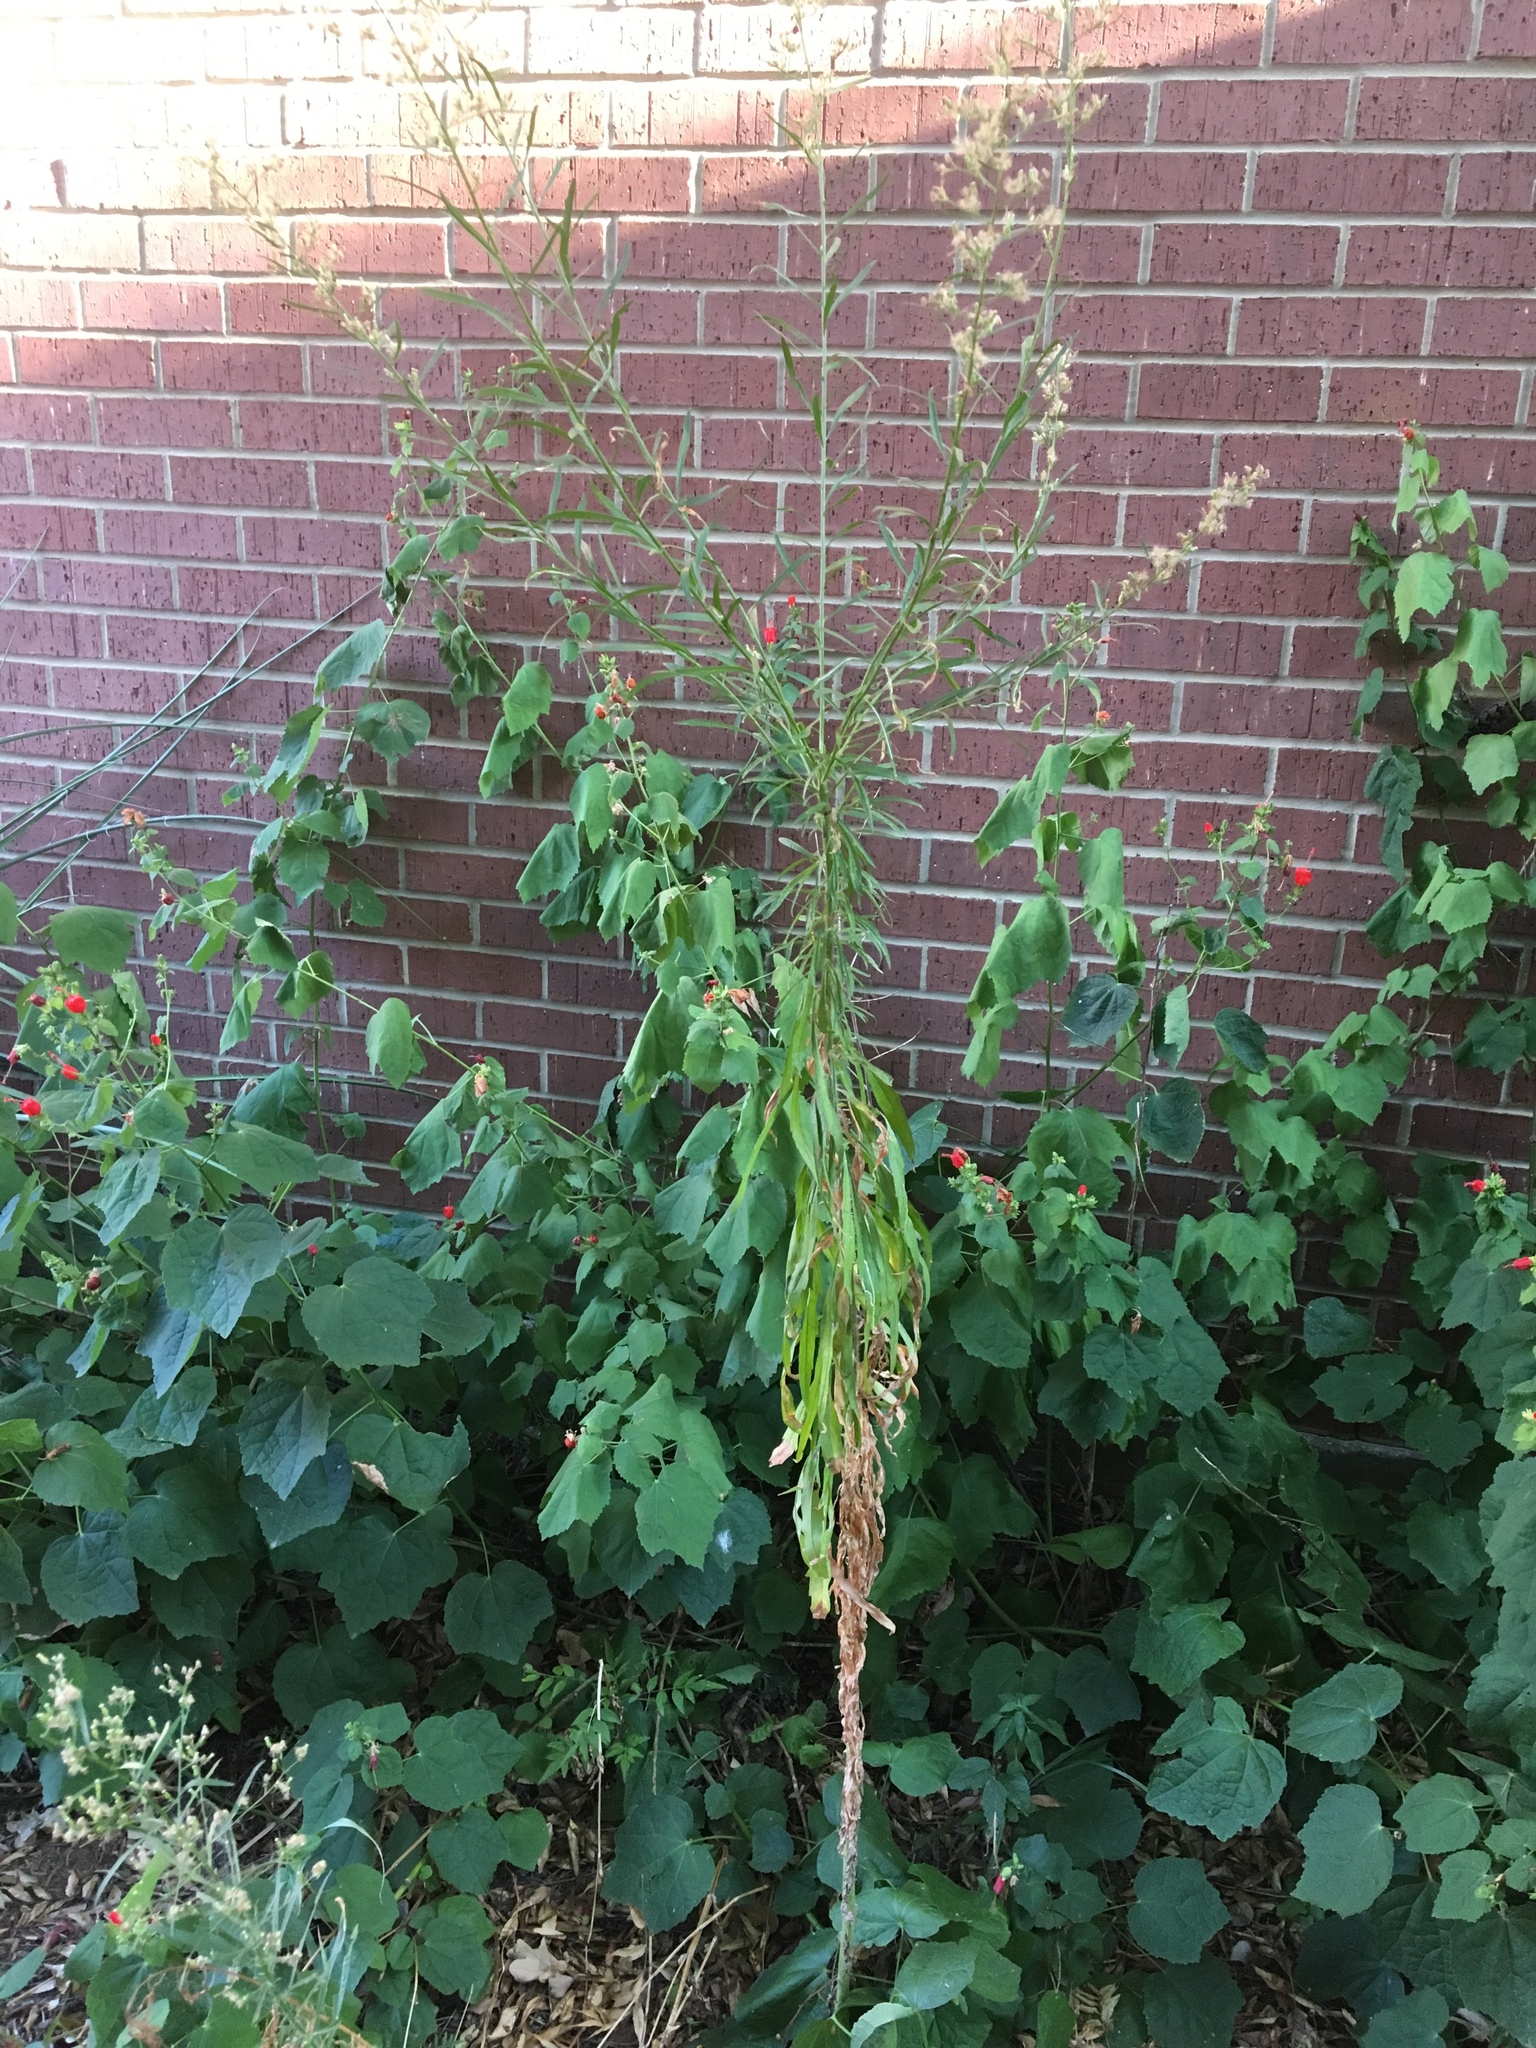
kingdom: Plantae
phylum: Tracheophyta
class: Magnoliopsida
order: Asterales
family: Asteraceae
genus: Erigeron
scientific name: Erigeron canadensis
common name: Canadian fleabane
